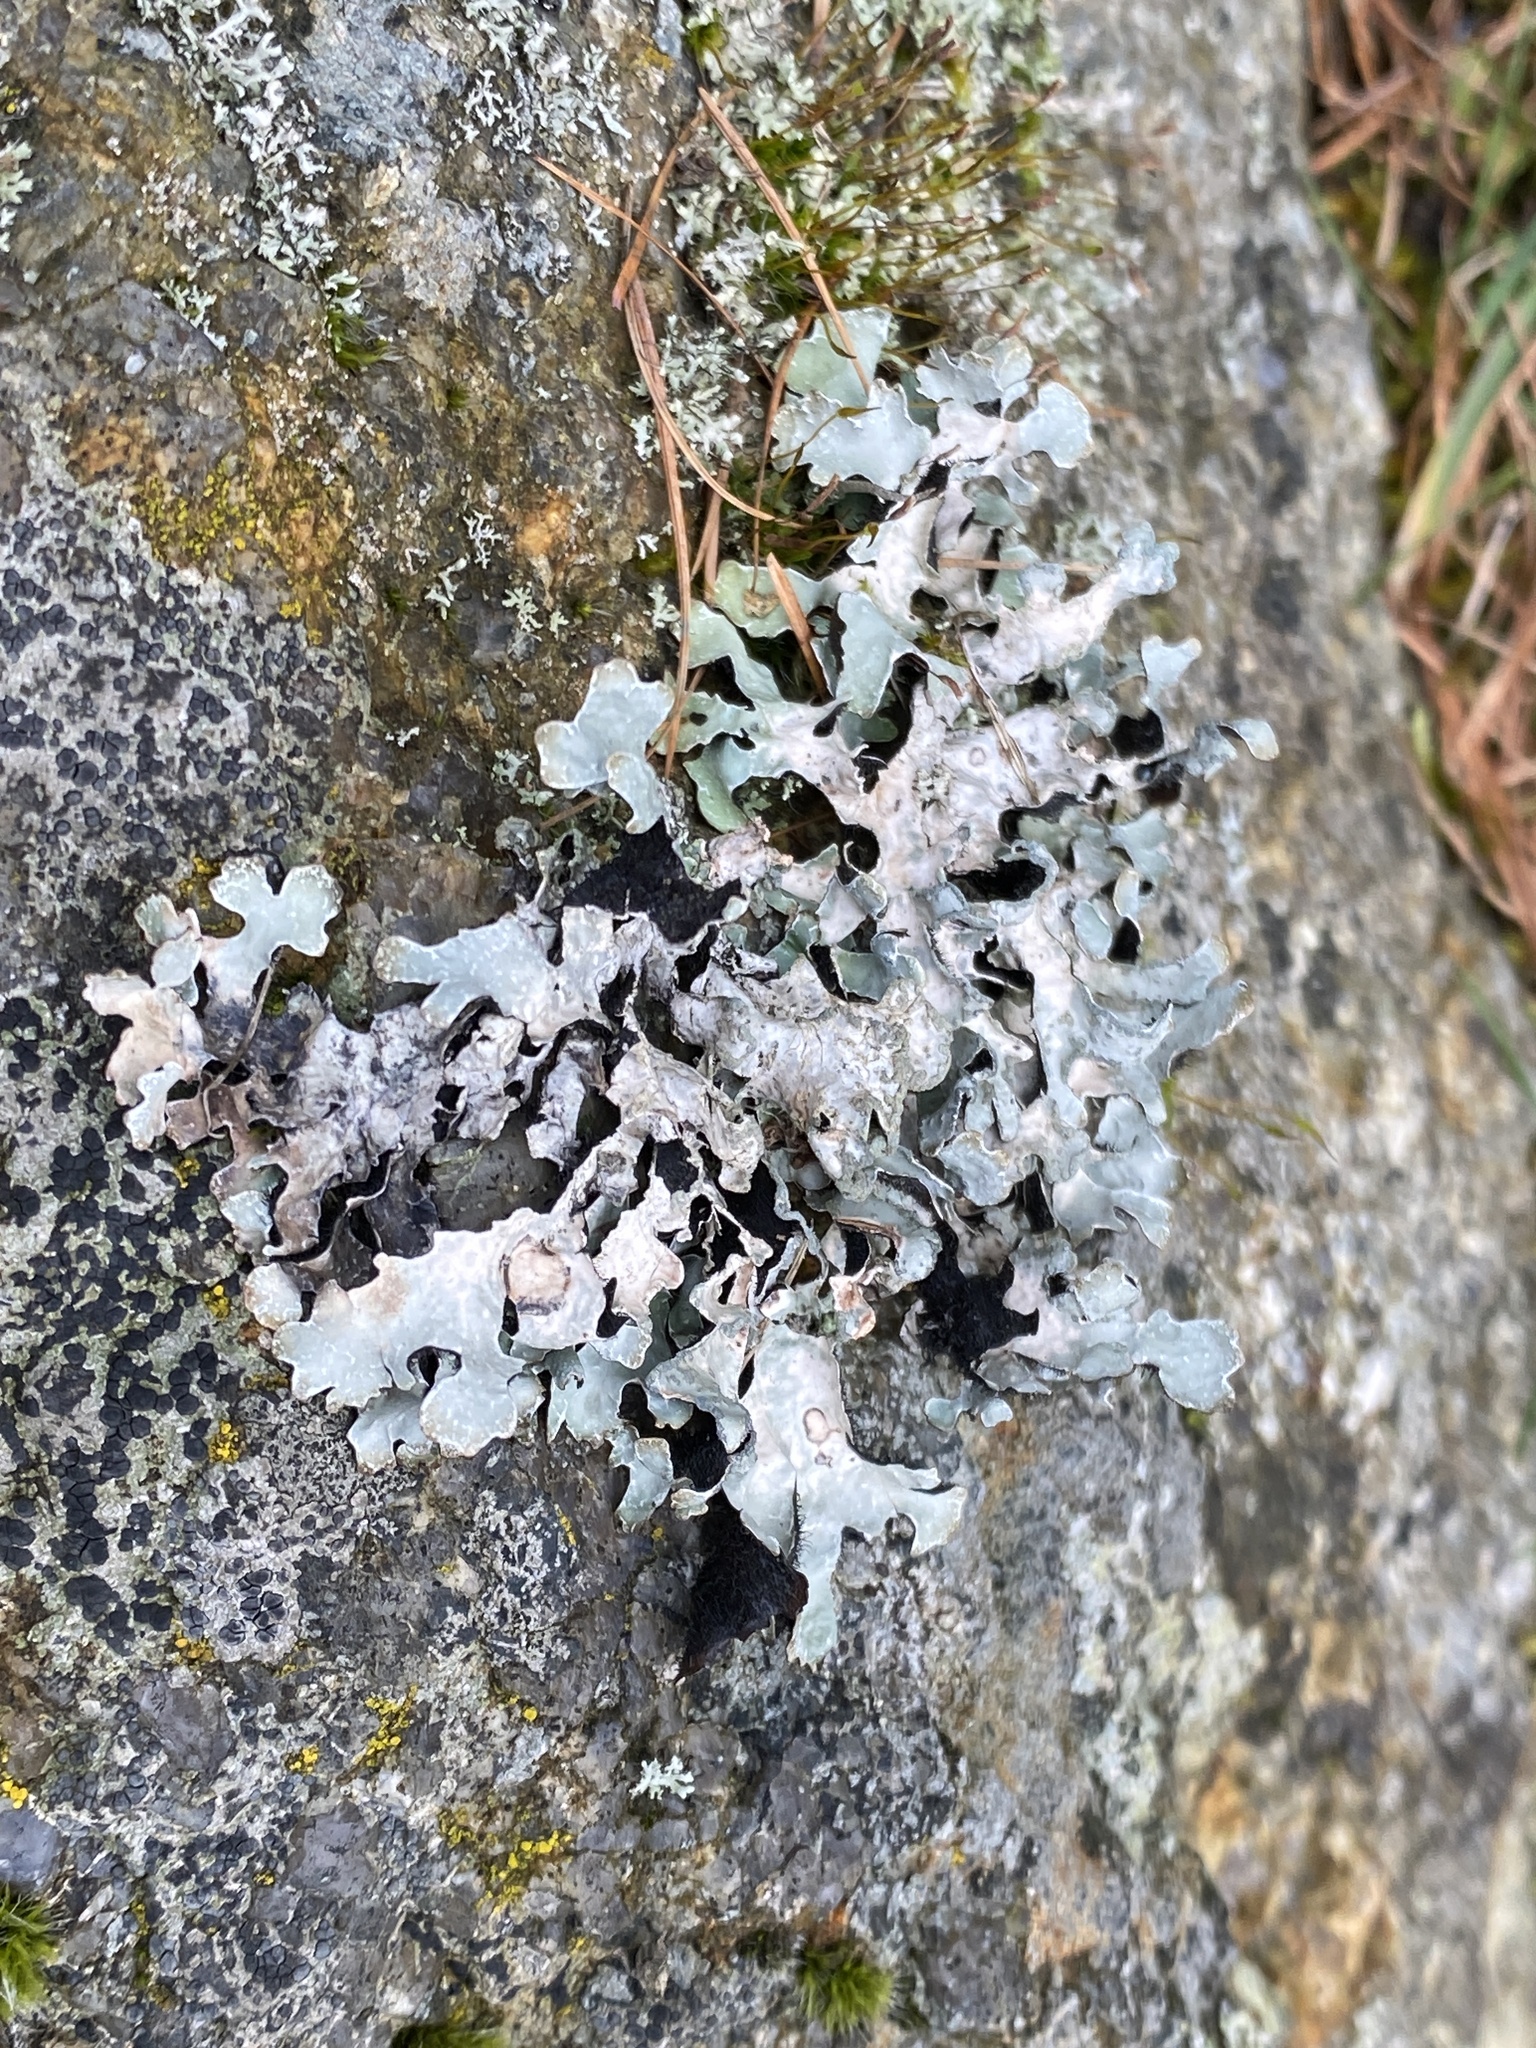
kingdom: Fungi
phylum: Ascomycota
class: Lecanoromycetes
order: Lecanorales
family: Parmeliaceae
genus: Parmelia
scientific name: Parmelia sulcata
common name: Netted shield lichen
